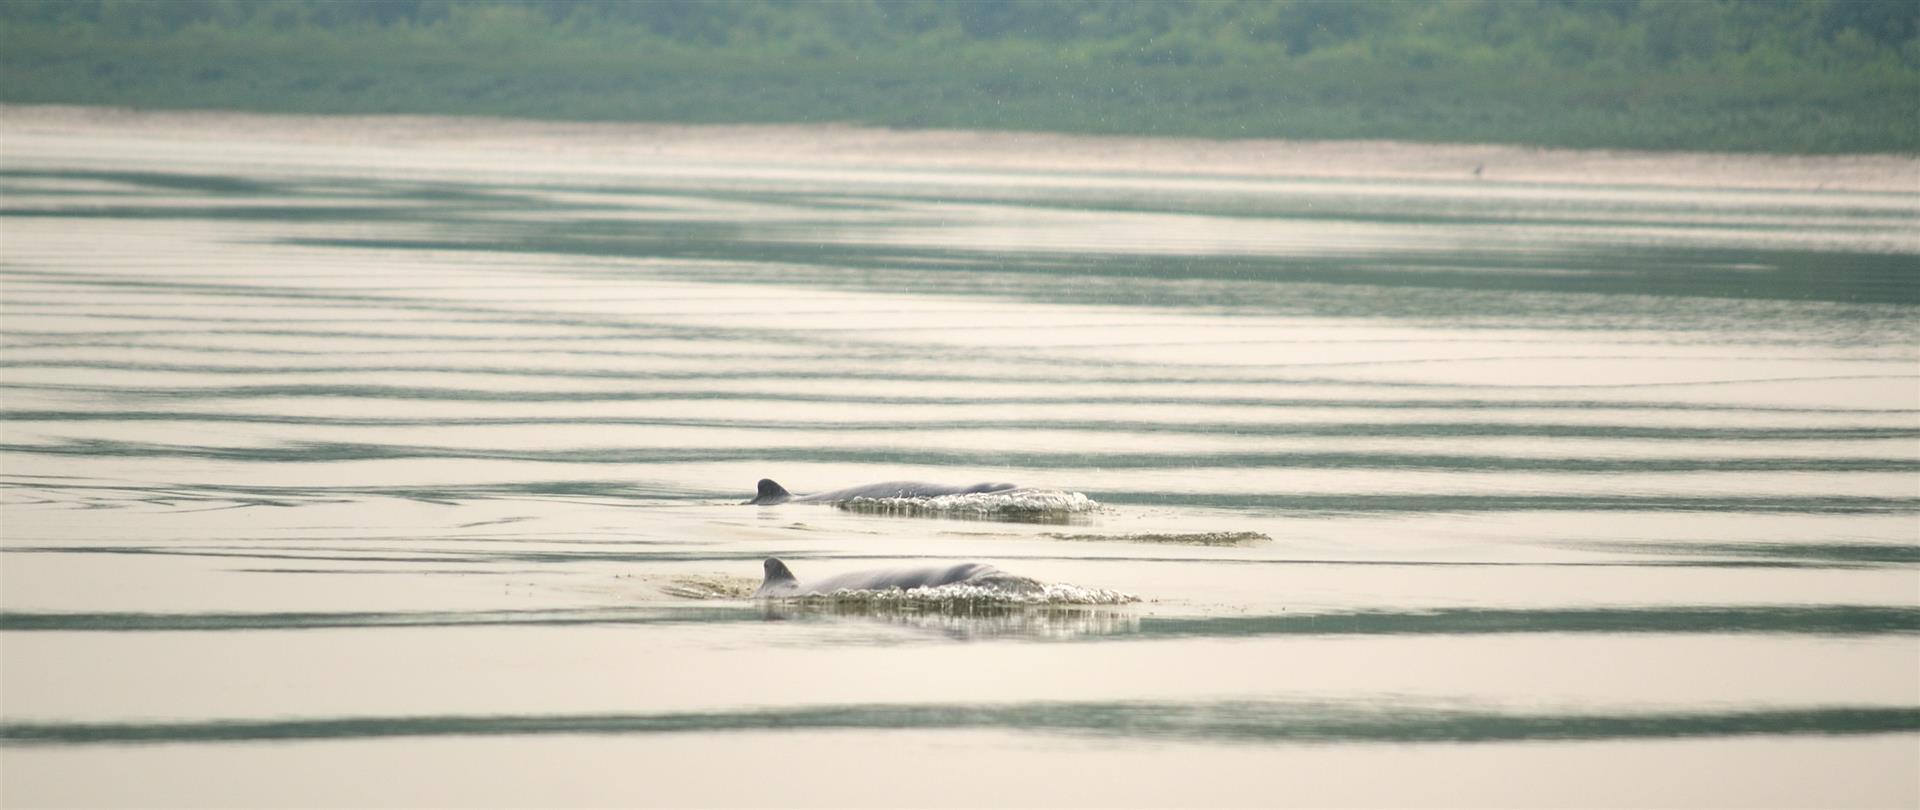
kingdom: Animalia
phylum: Chordata
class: Mammalia
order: Cetacea
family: Delphinidae
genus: Orcaella
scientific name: Orcaella brevirostris
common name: Irrawaddy dolphin
